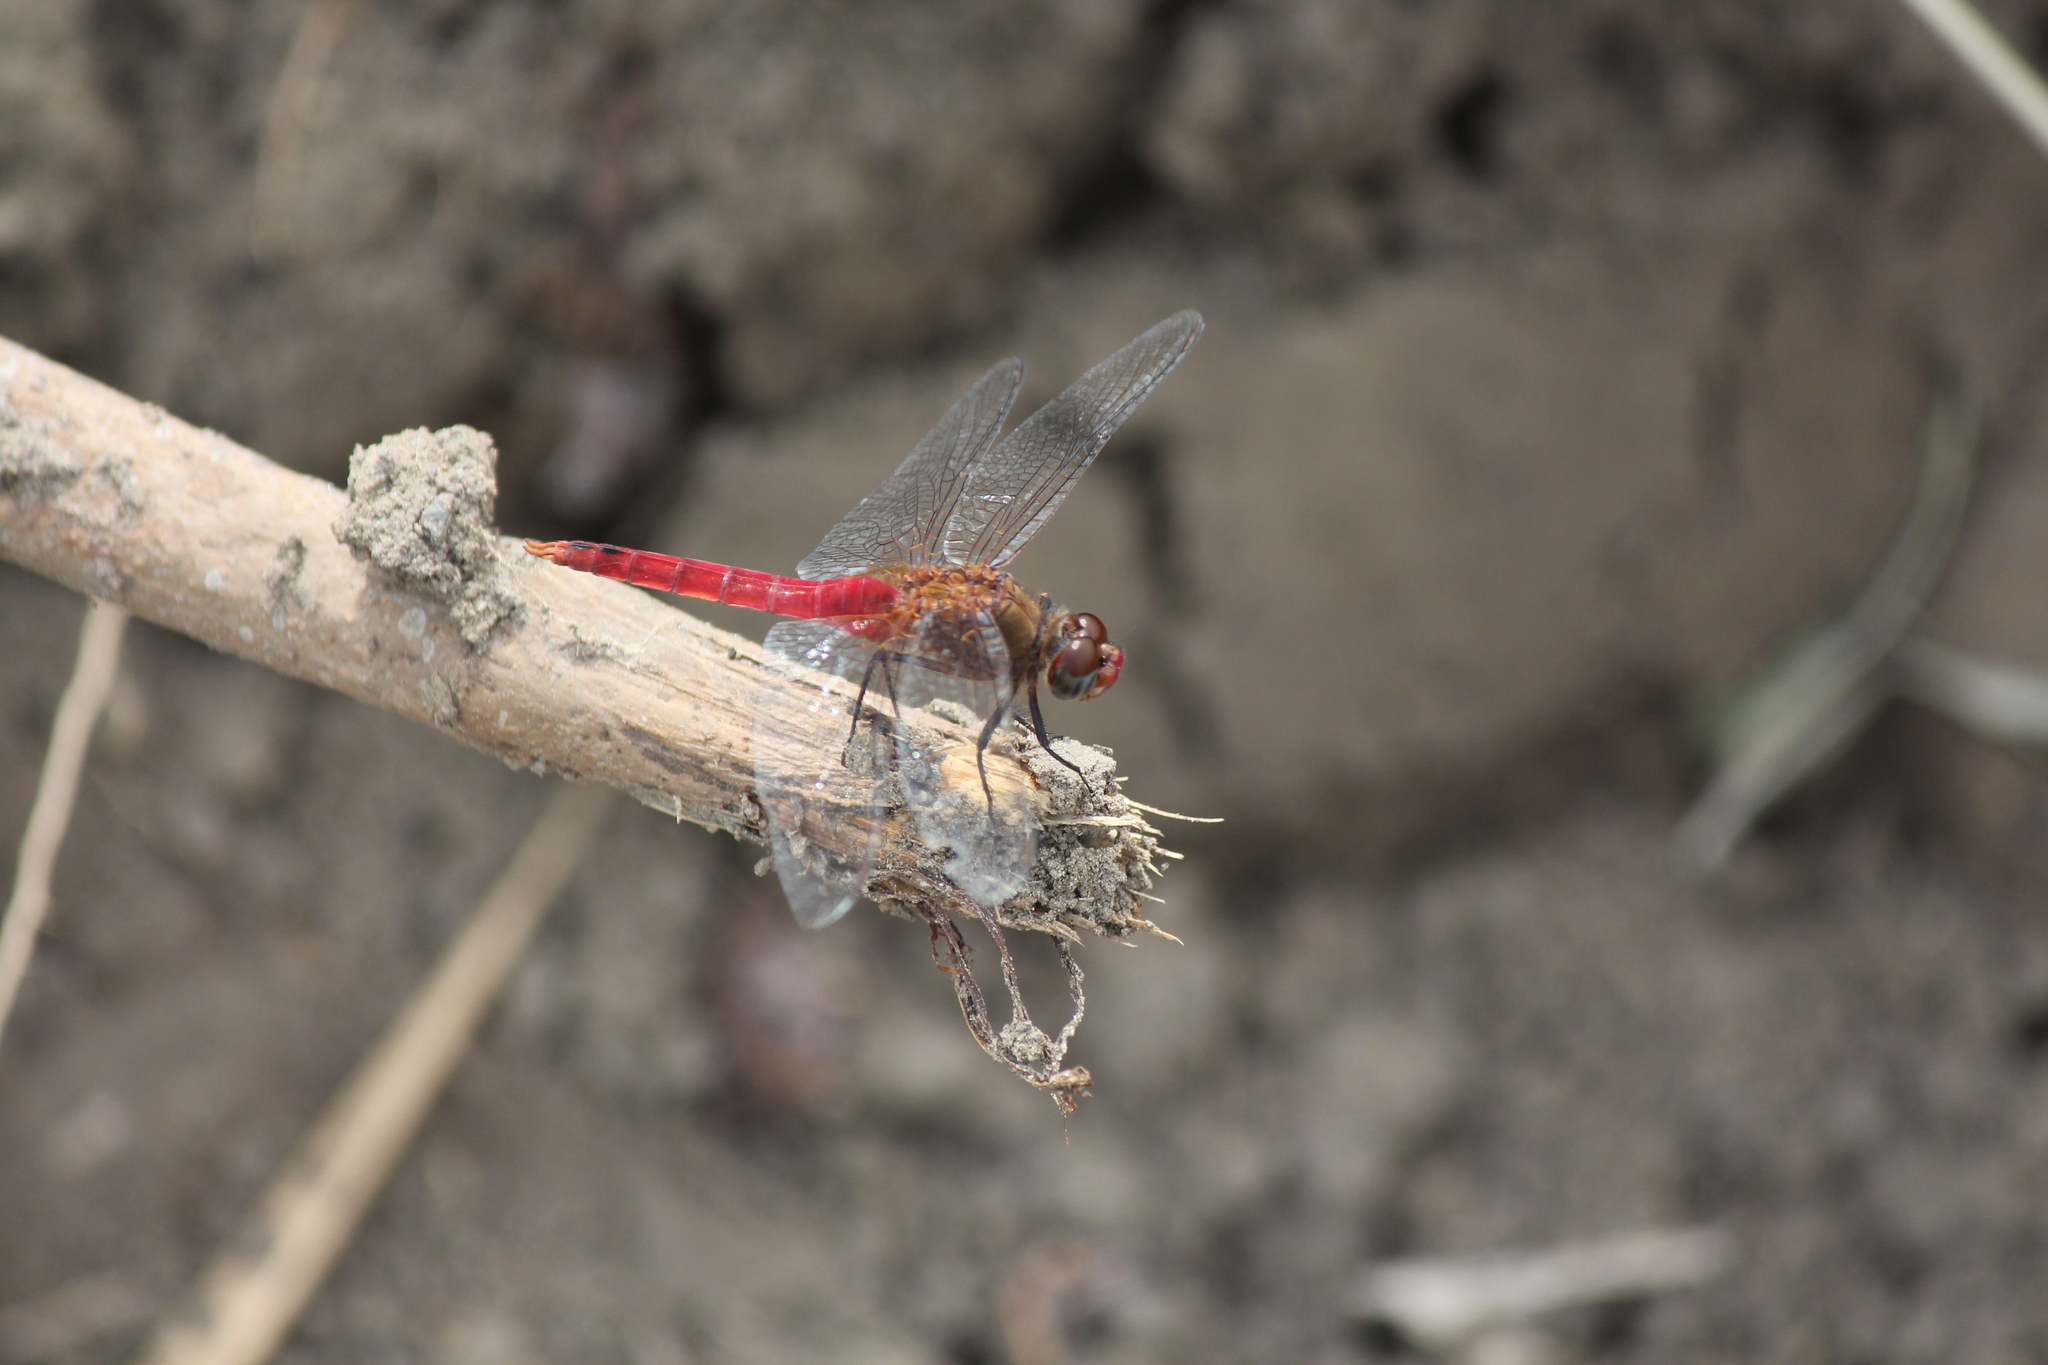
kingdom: Animalia
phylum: Arthropoda
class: Insecta
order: Odonata
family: Libellulidae
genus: Brachymesia
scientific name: Brachymesia furcata
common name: Red-taled pennant
